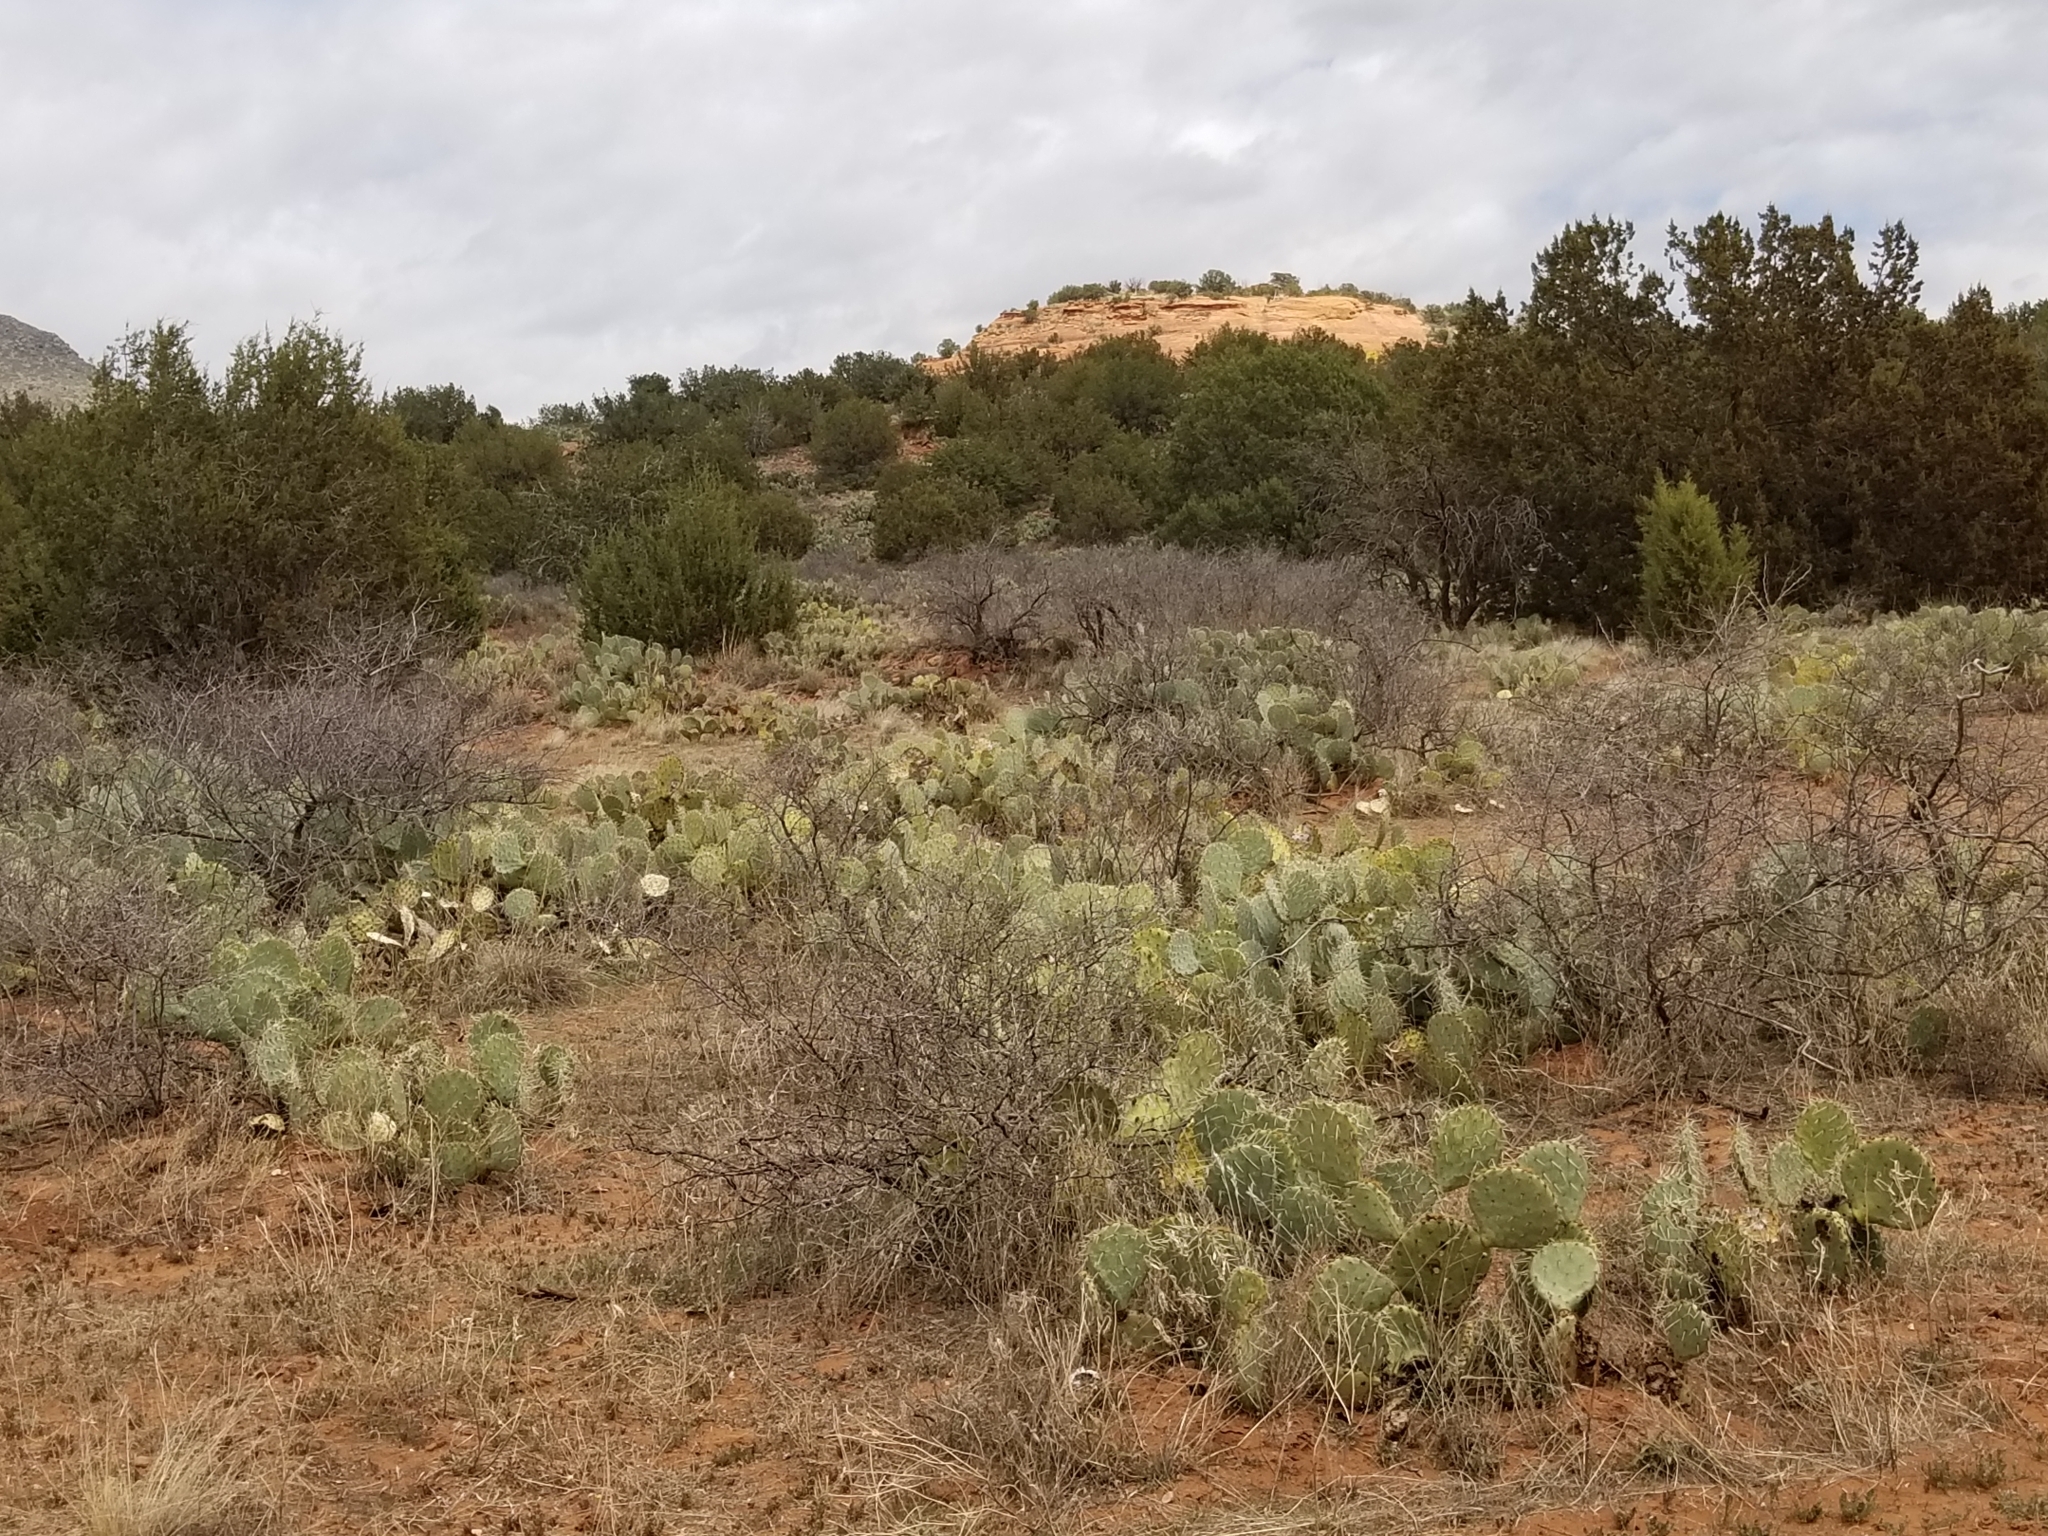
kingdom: Plantae
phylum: Tracheophyta
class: Magnoliopsida
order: Caryophyllales
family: Cactaceae
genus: Opuntia
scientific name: Opuntia engelmannii
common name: Cactus-apple
